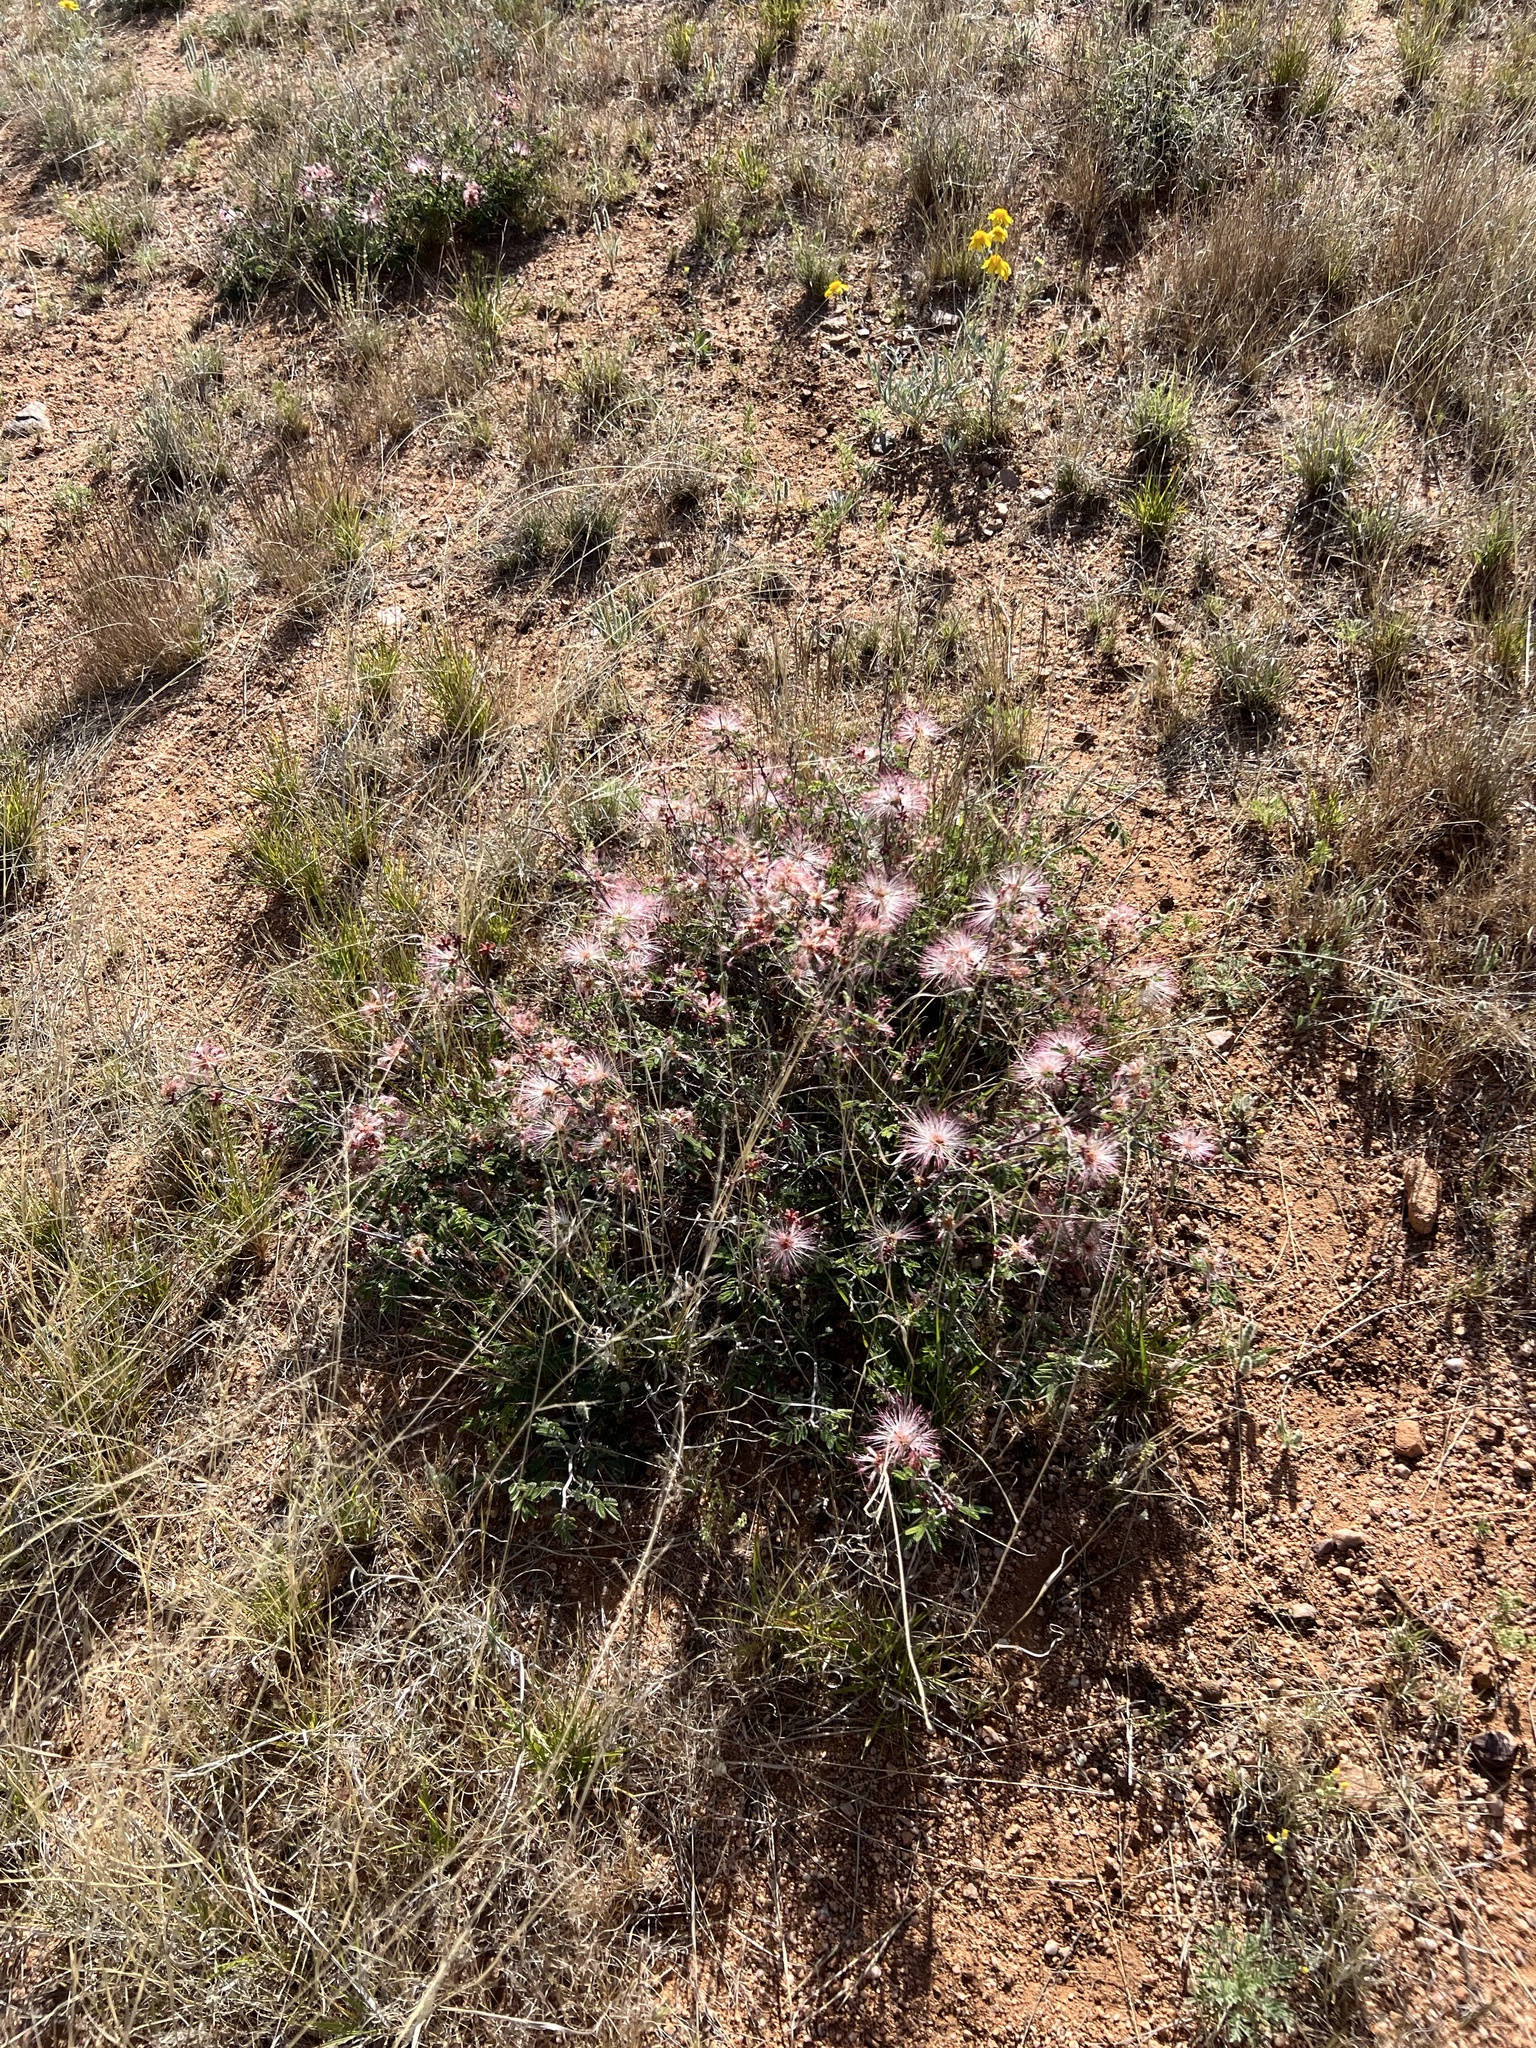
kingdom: Plantae
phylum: Tracheophyta
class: Magnoliopsida
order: Fabales
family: Fabaceae
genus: Calliandra
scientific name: Calliandra eriophylla
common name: Fairy-duster
